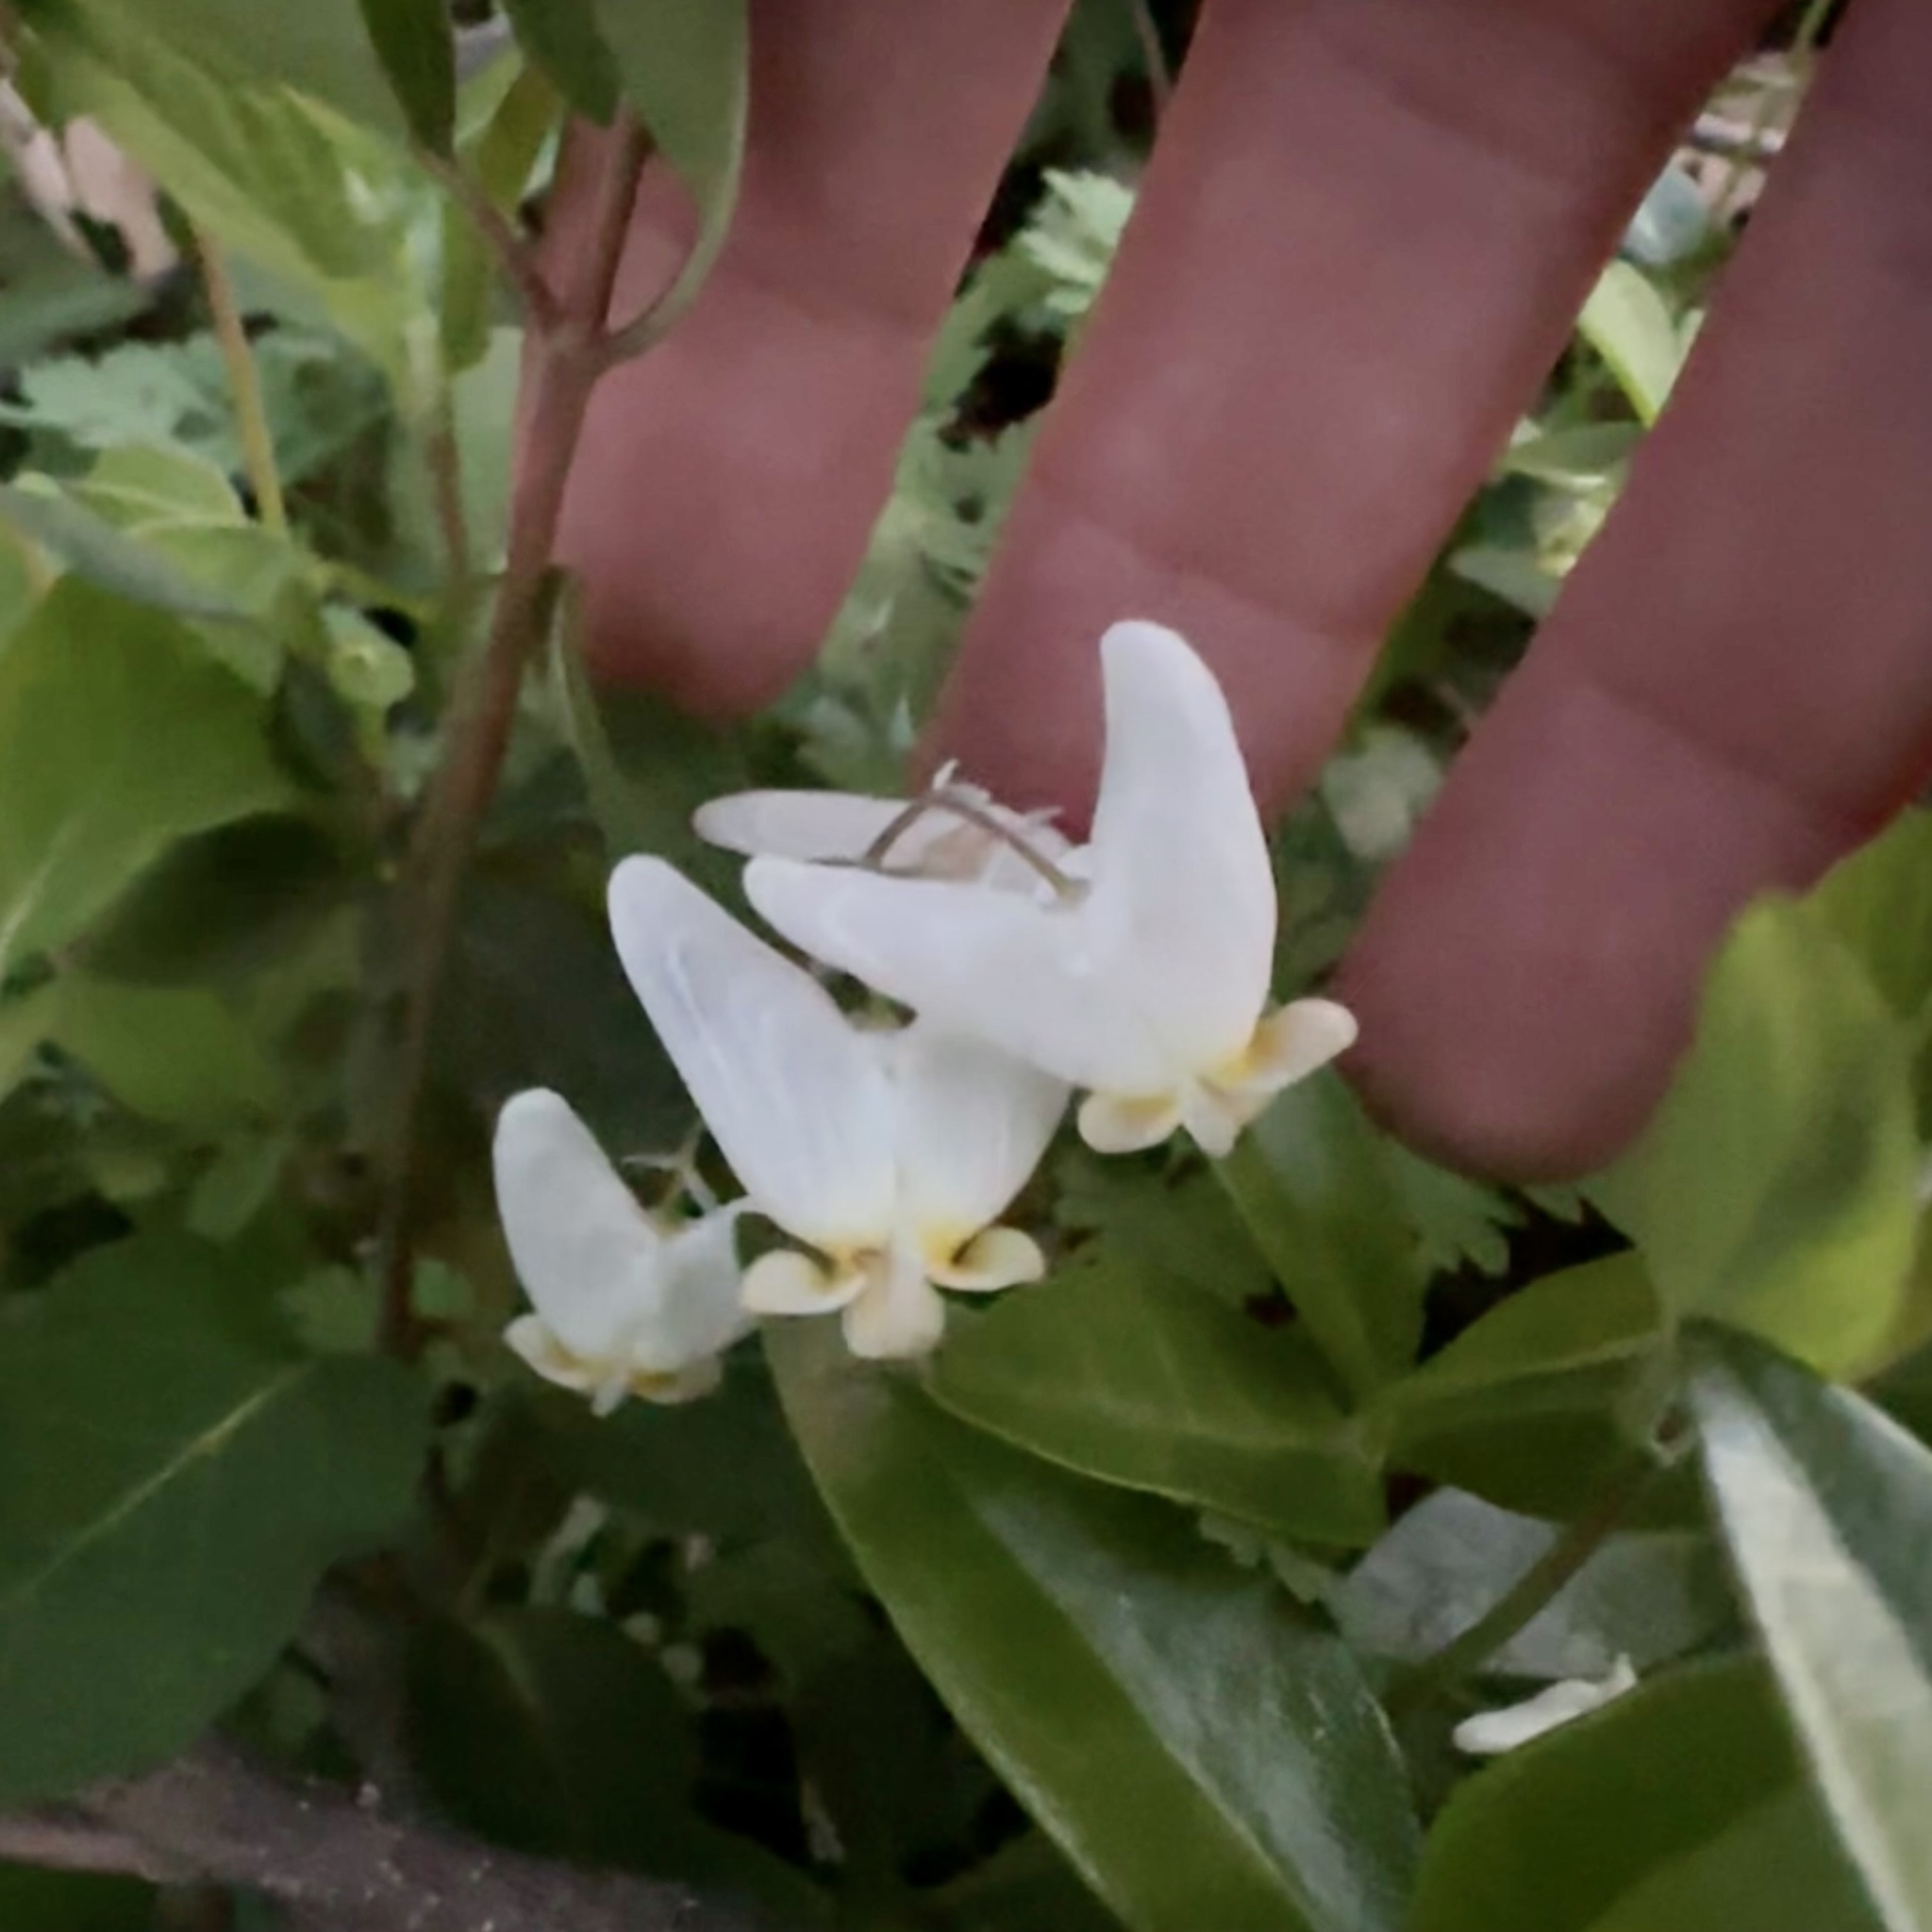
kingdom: Plantae
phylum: Tracheophyta
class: Magnoliopsida
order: Ranunculales
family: Papaveraceae
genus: Dicentra
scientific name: Dicentra cucullaria
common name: Dutchman's breeches
